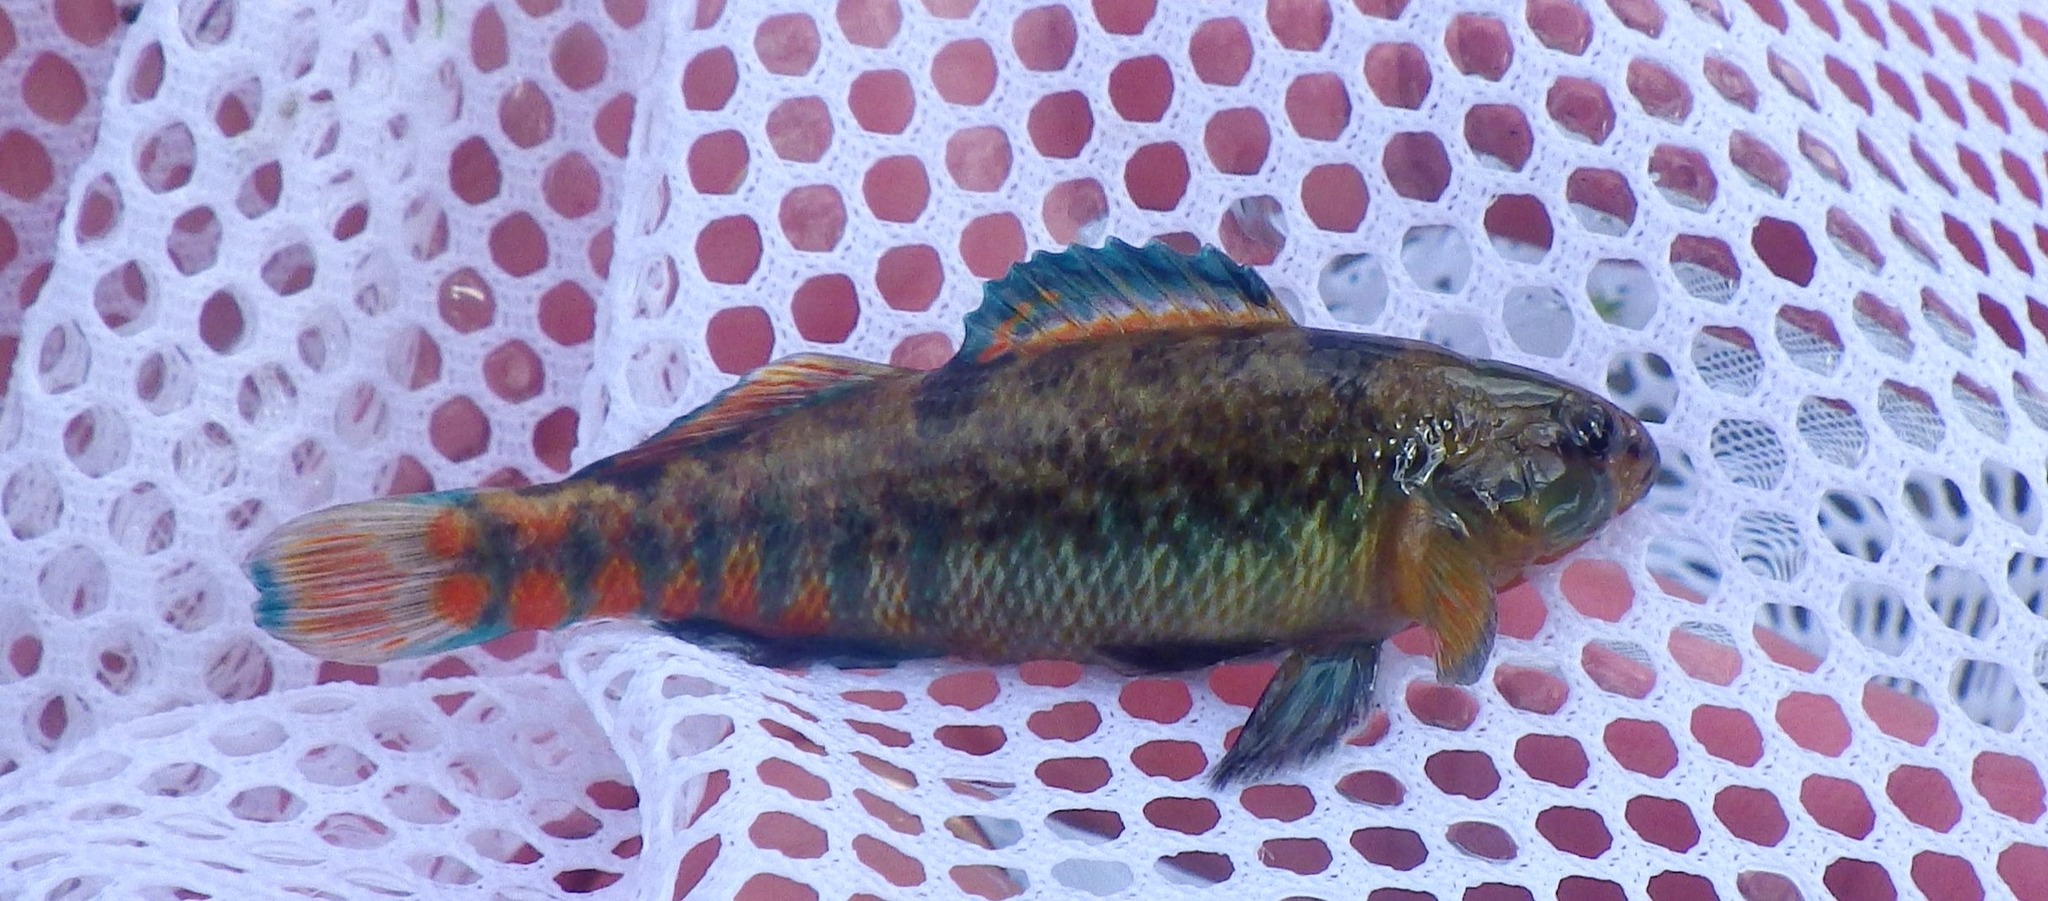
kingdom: Animalia
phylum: Chordata
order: Perciformes
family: Percidae
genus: Etheostoma
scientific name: Etheostoma caeruleum
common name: Rainbow darter
